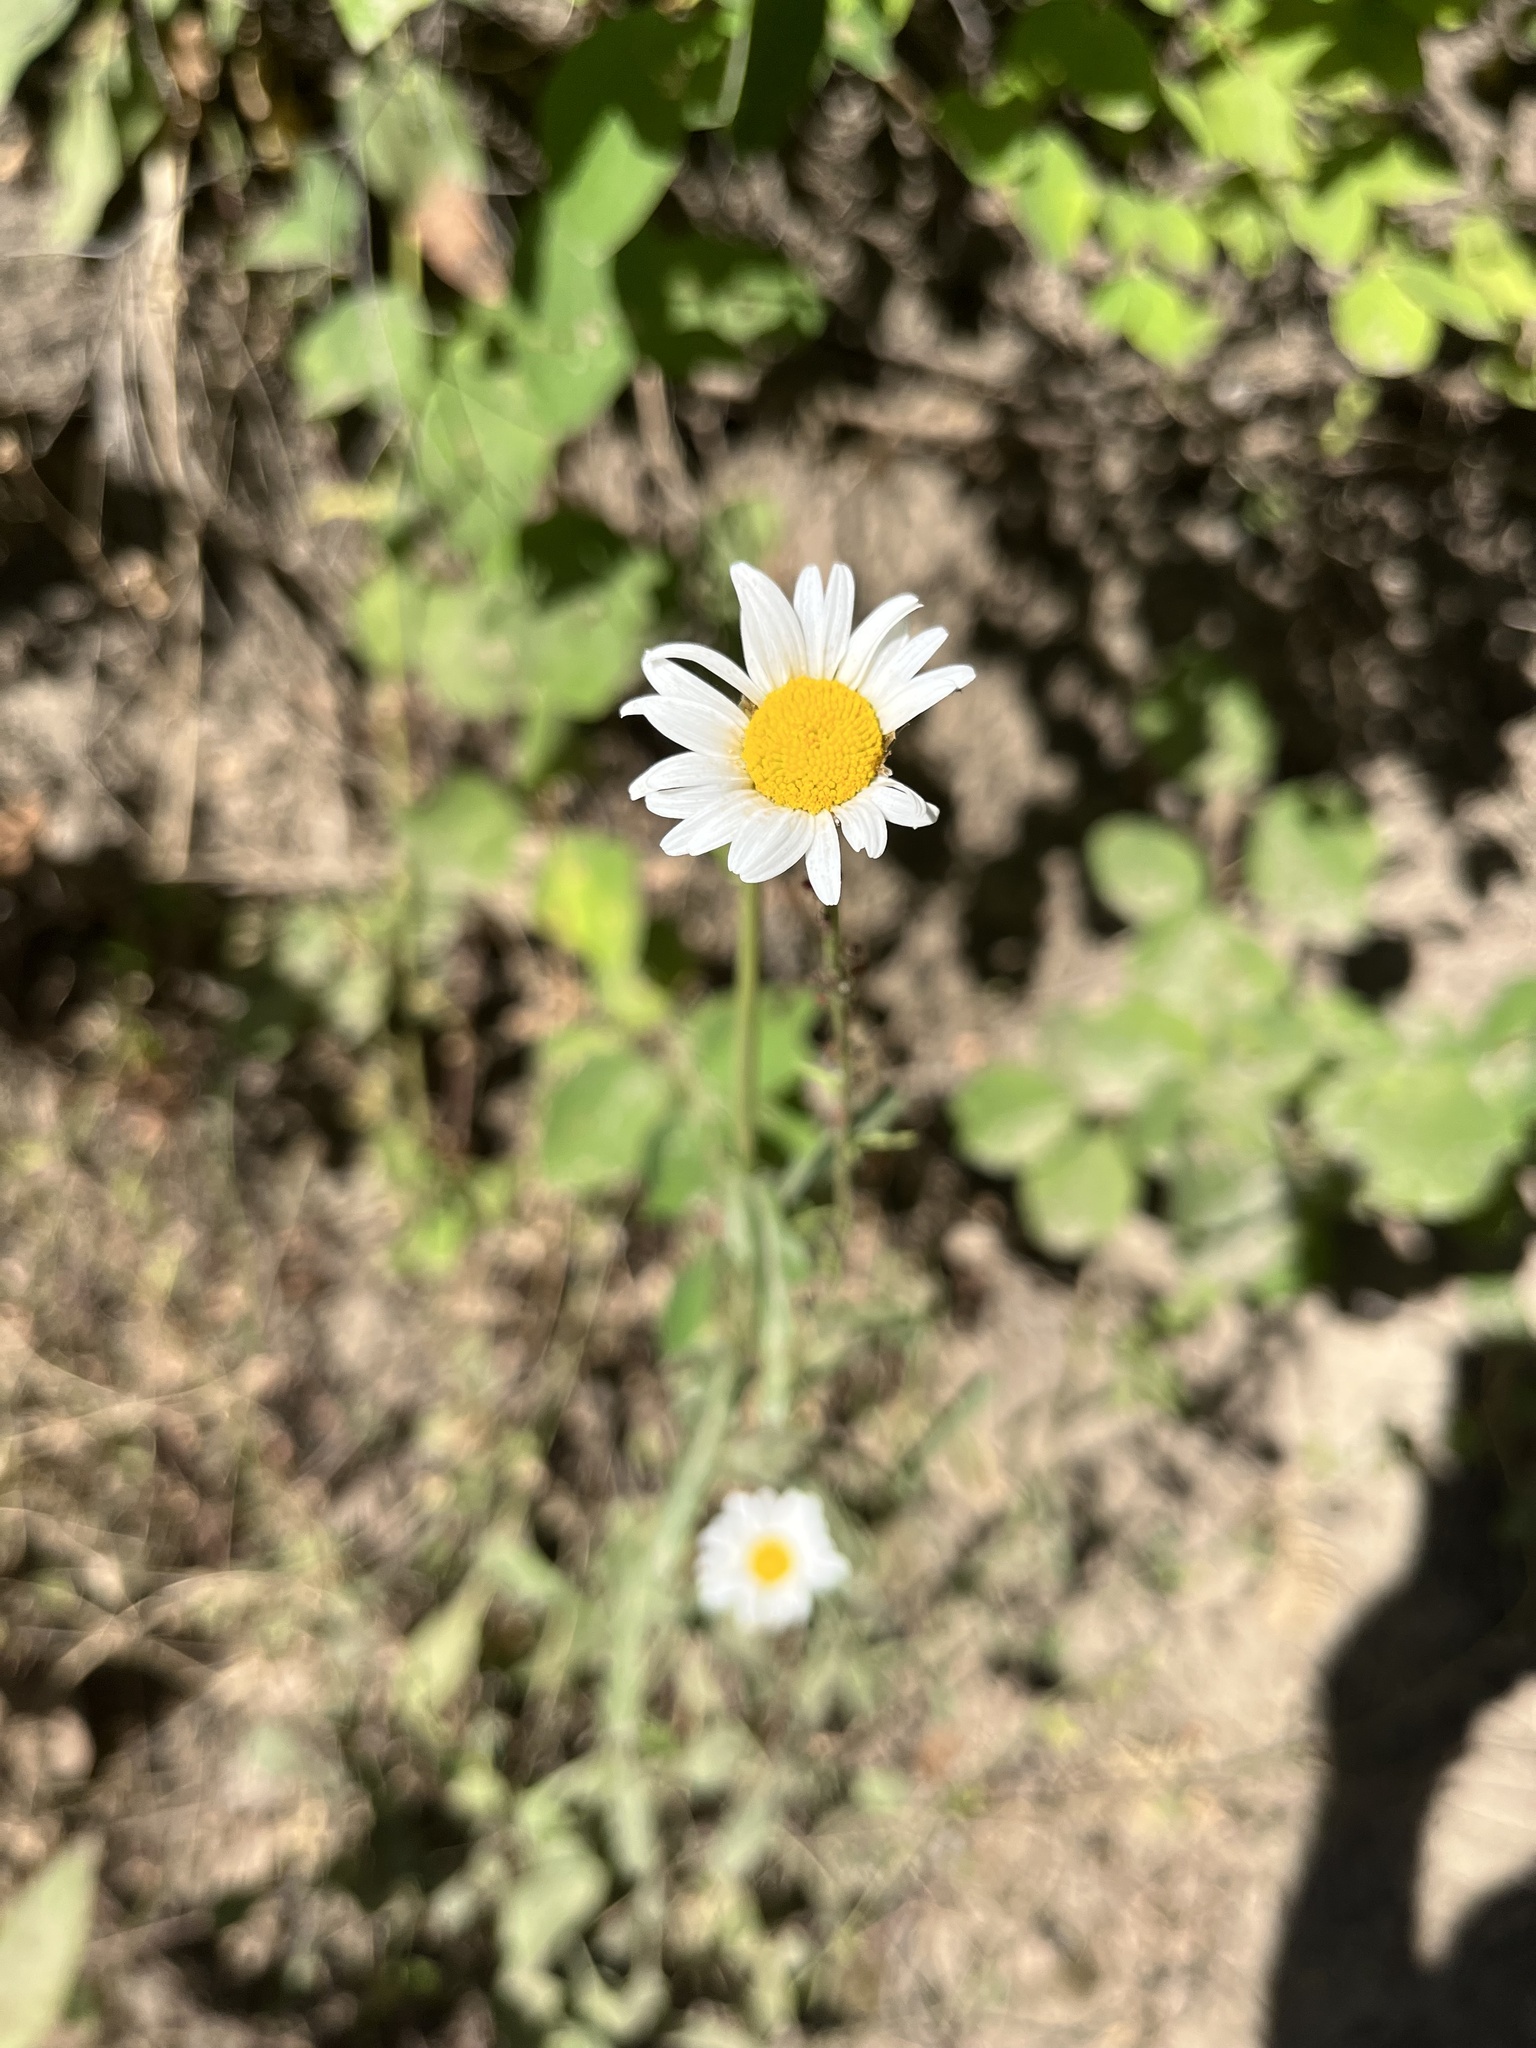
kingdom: Plantae
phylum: Tracheophyta
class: Magnoliopsida
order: Asterales
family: Asteraceae
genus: Leucanthemum
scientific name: Leucanthemum vulgare
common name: Oxeye daisy
